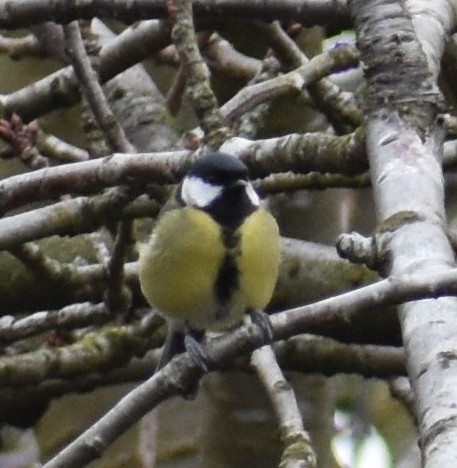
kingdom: Animalia
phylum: Chordata
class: Aves
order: Passeriformes
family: Paridae
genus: Parus
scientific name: Parus major
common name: Great tit
